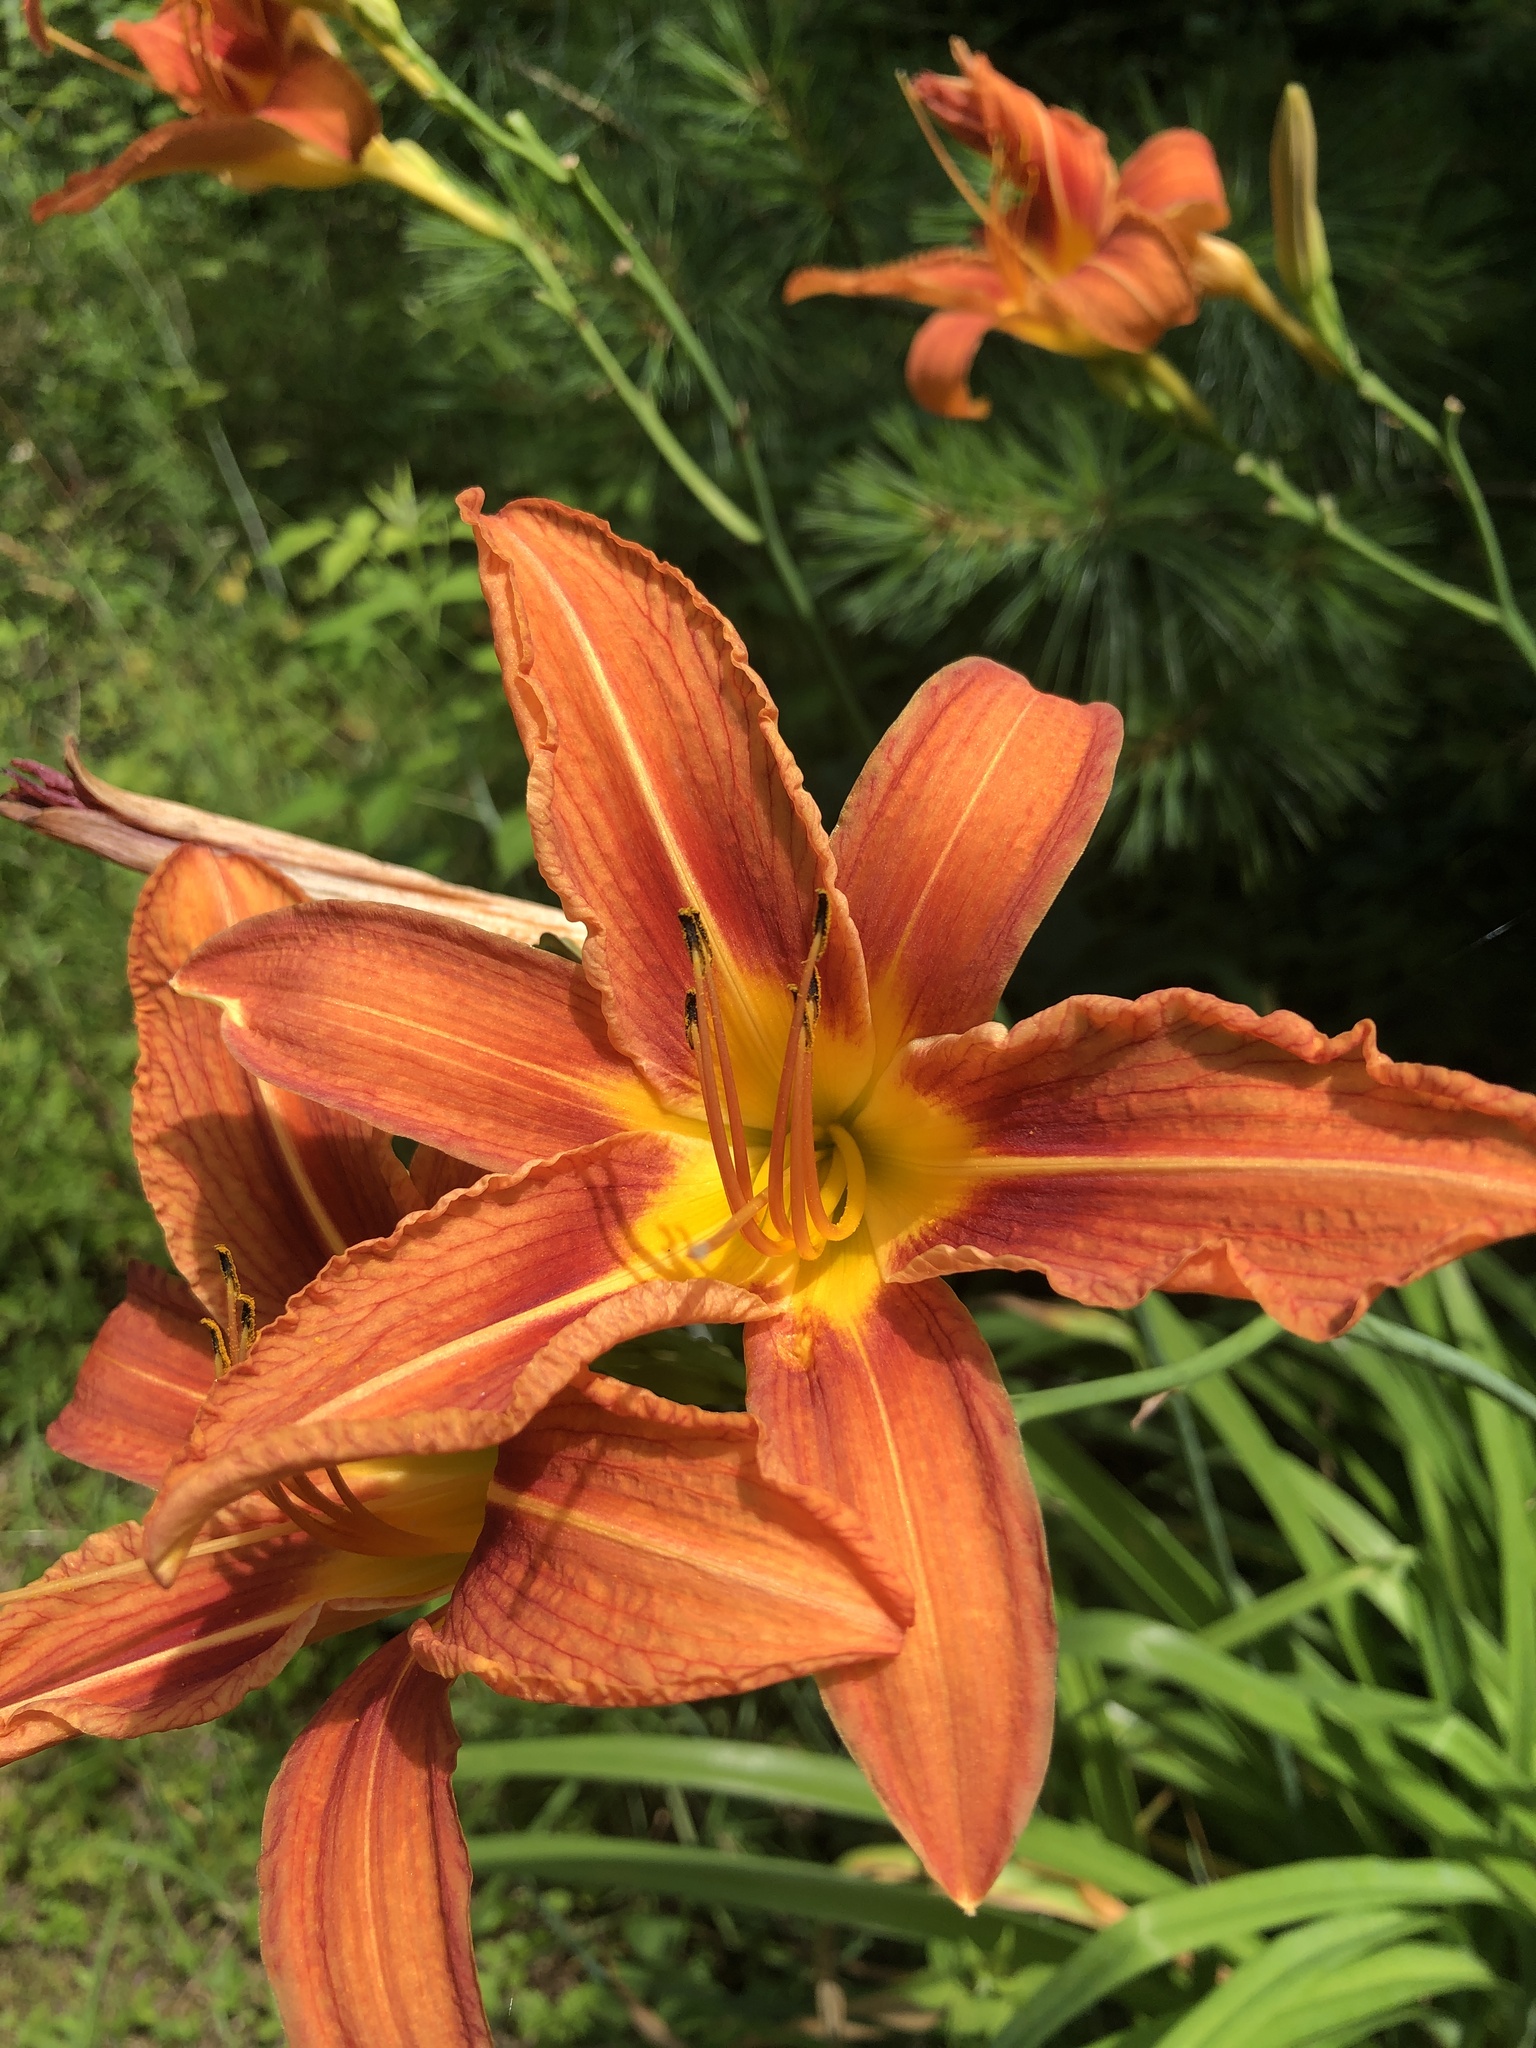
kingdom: Plantae
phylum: Tracheophyta
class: Liliopsida
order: Asparagales
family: Asphodelaceae
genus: Hemerocallis
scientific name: Hemerocallis fulva
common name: Orange day-lily
